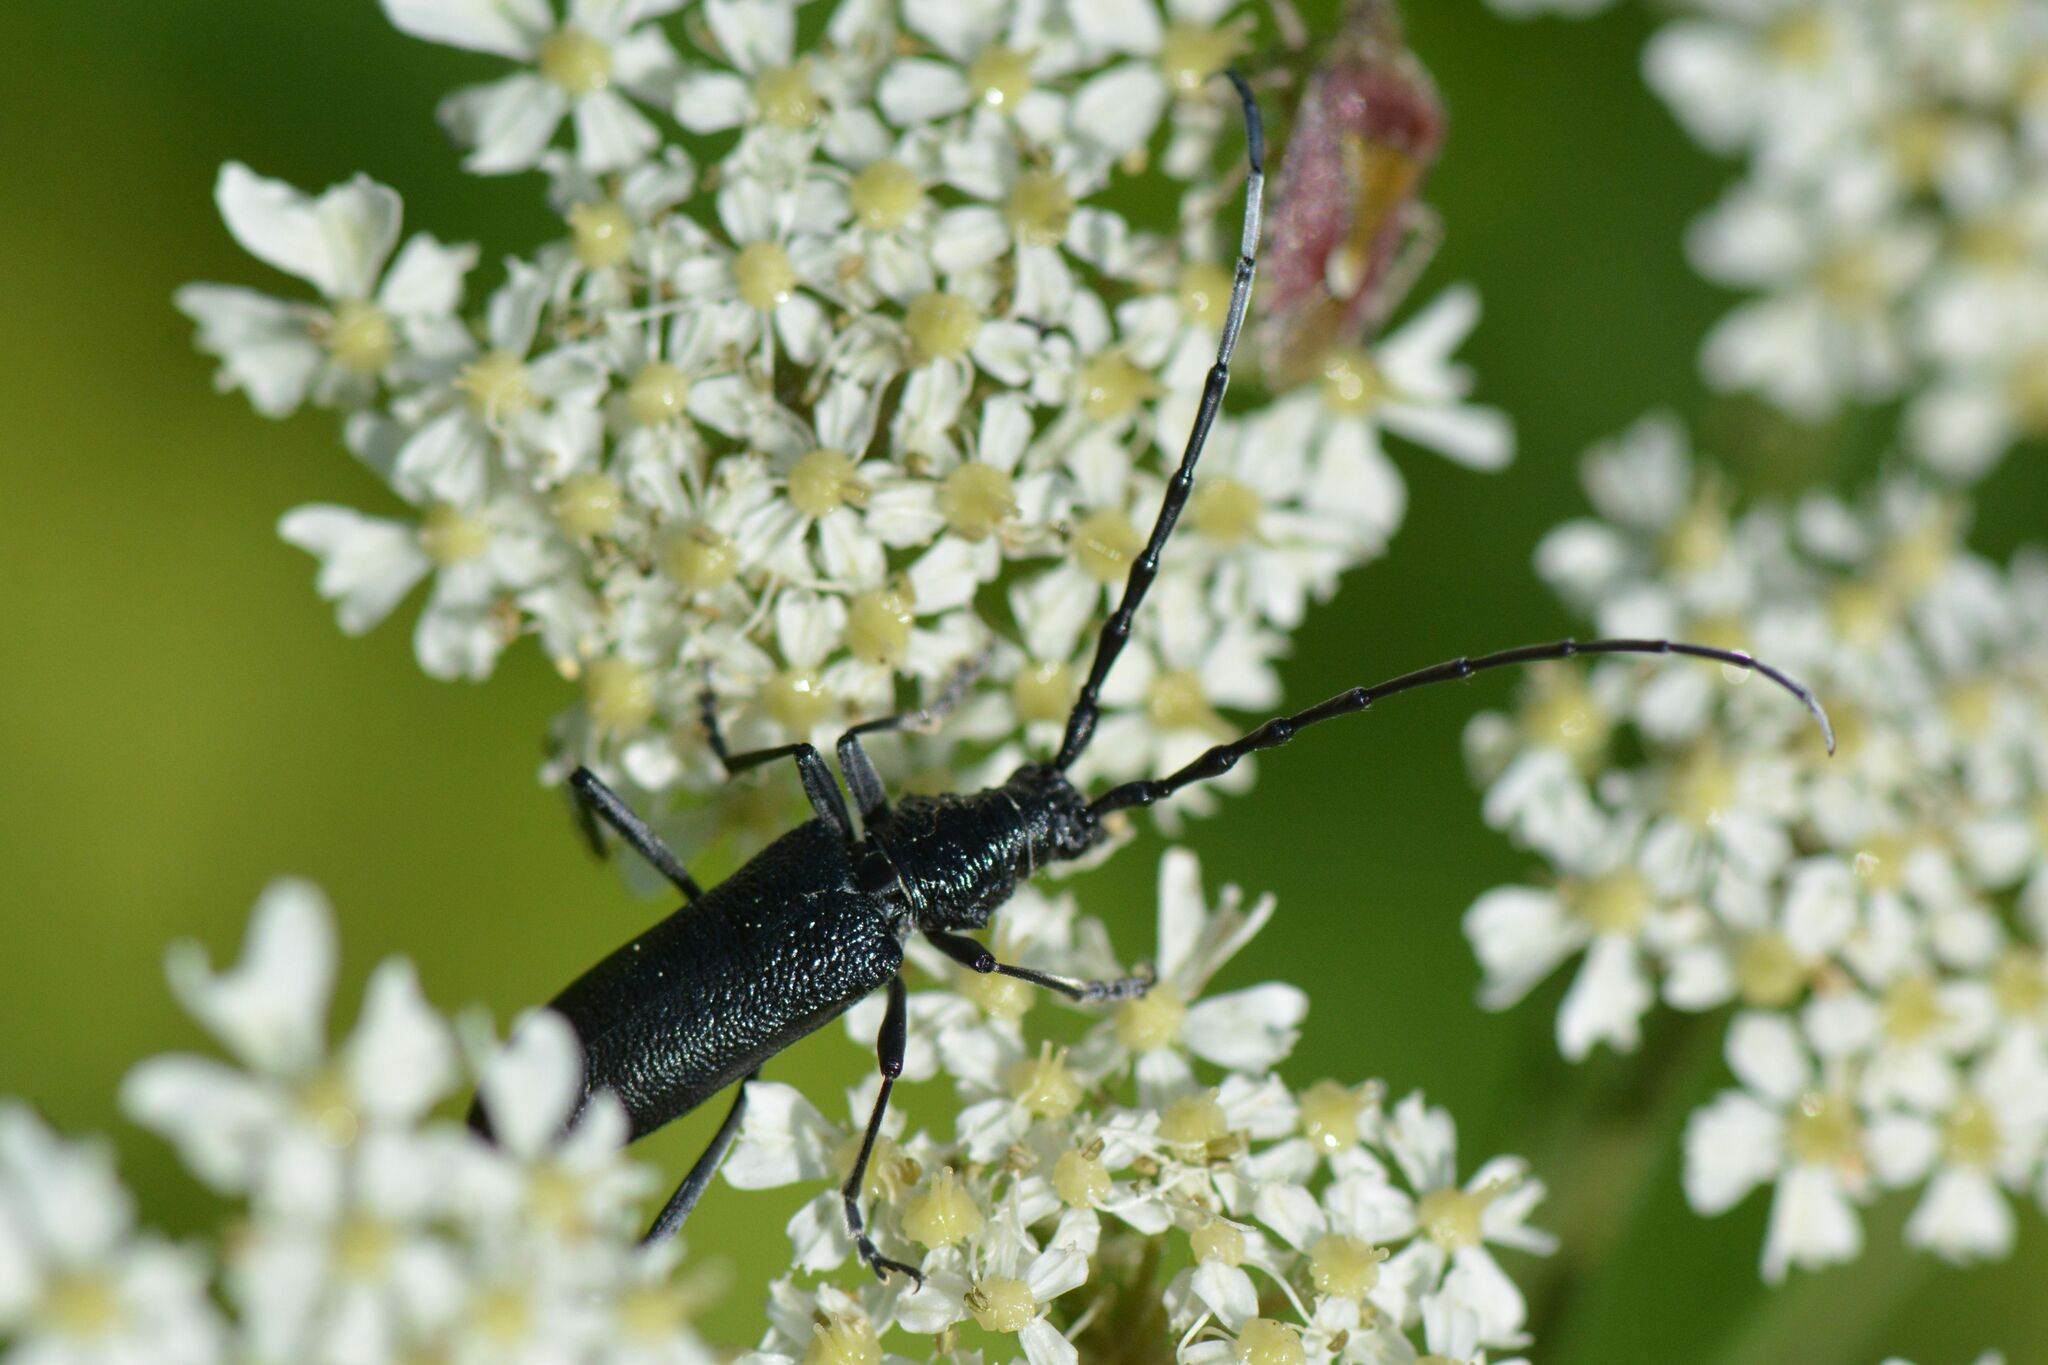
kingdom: Animalia
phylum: Arthropoda
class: Insecta
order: Coleoptera
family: Cerambycidae
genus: Cerambyx
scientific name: Cerambyx scopolii
